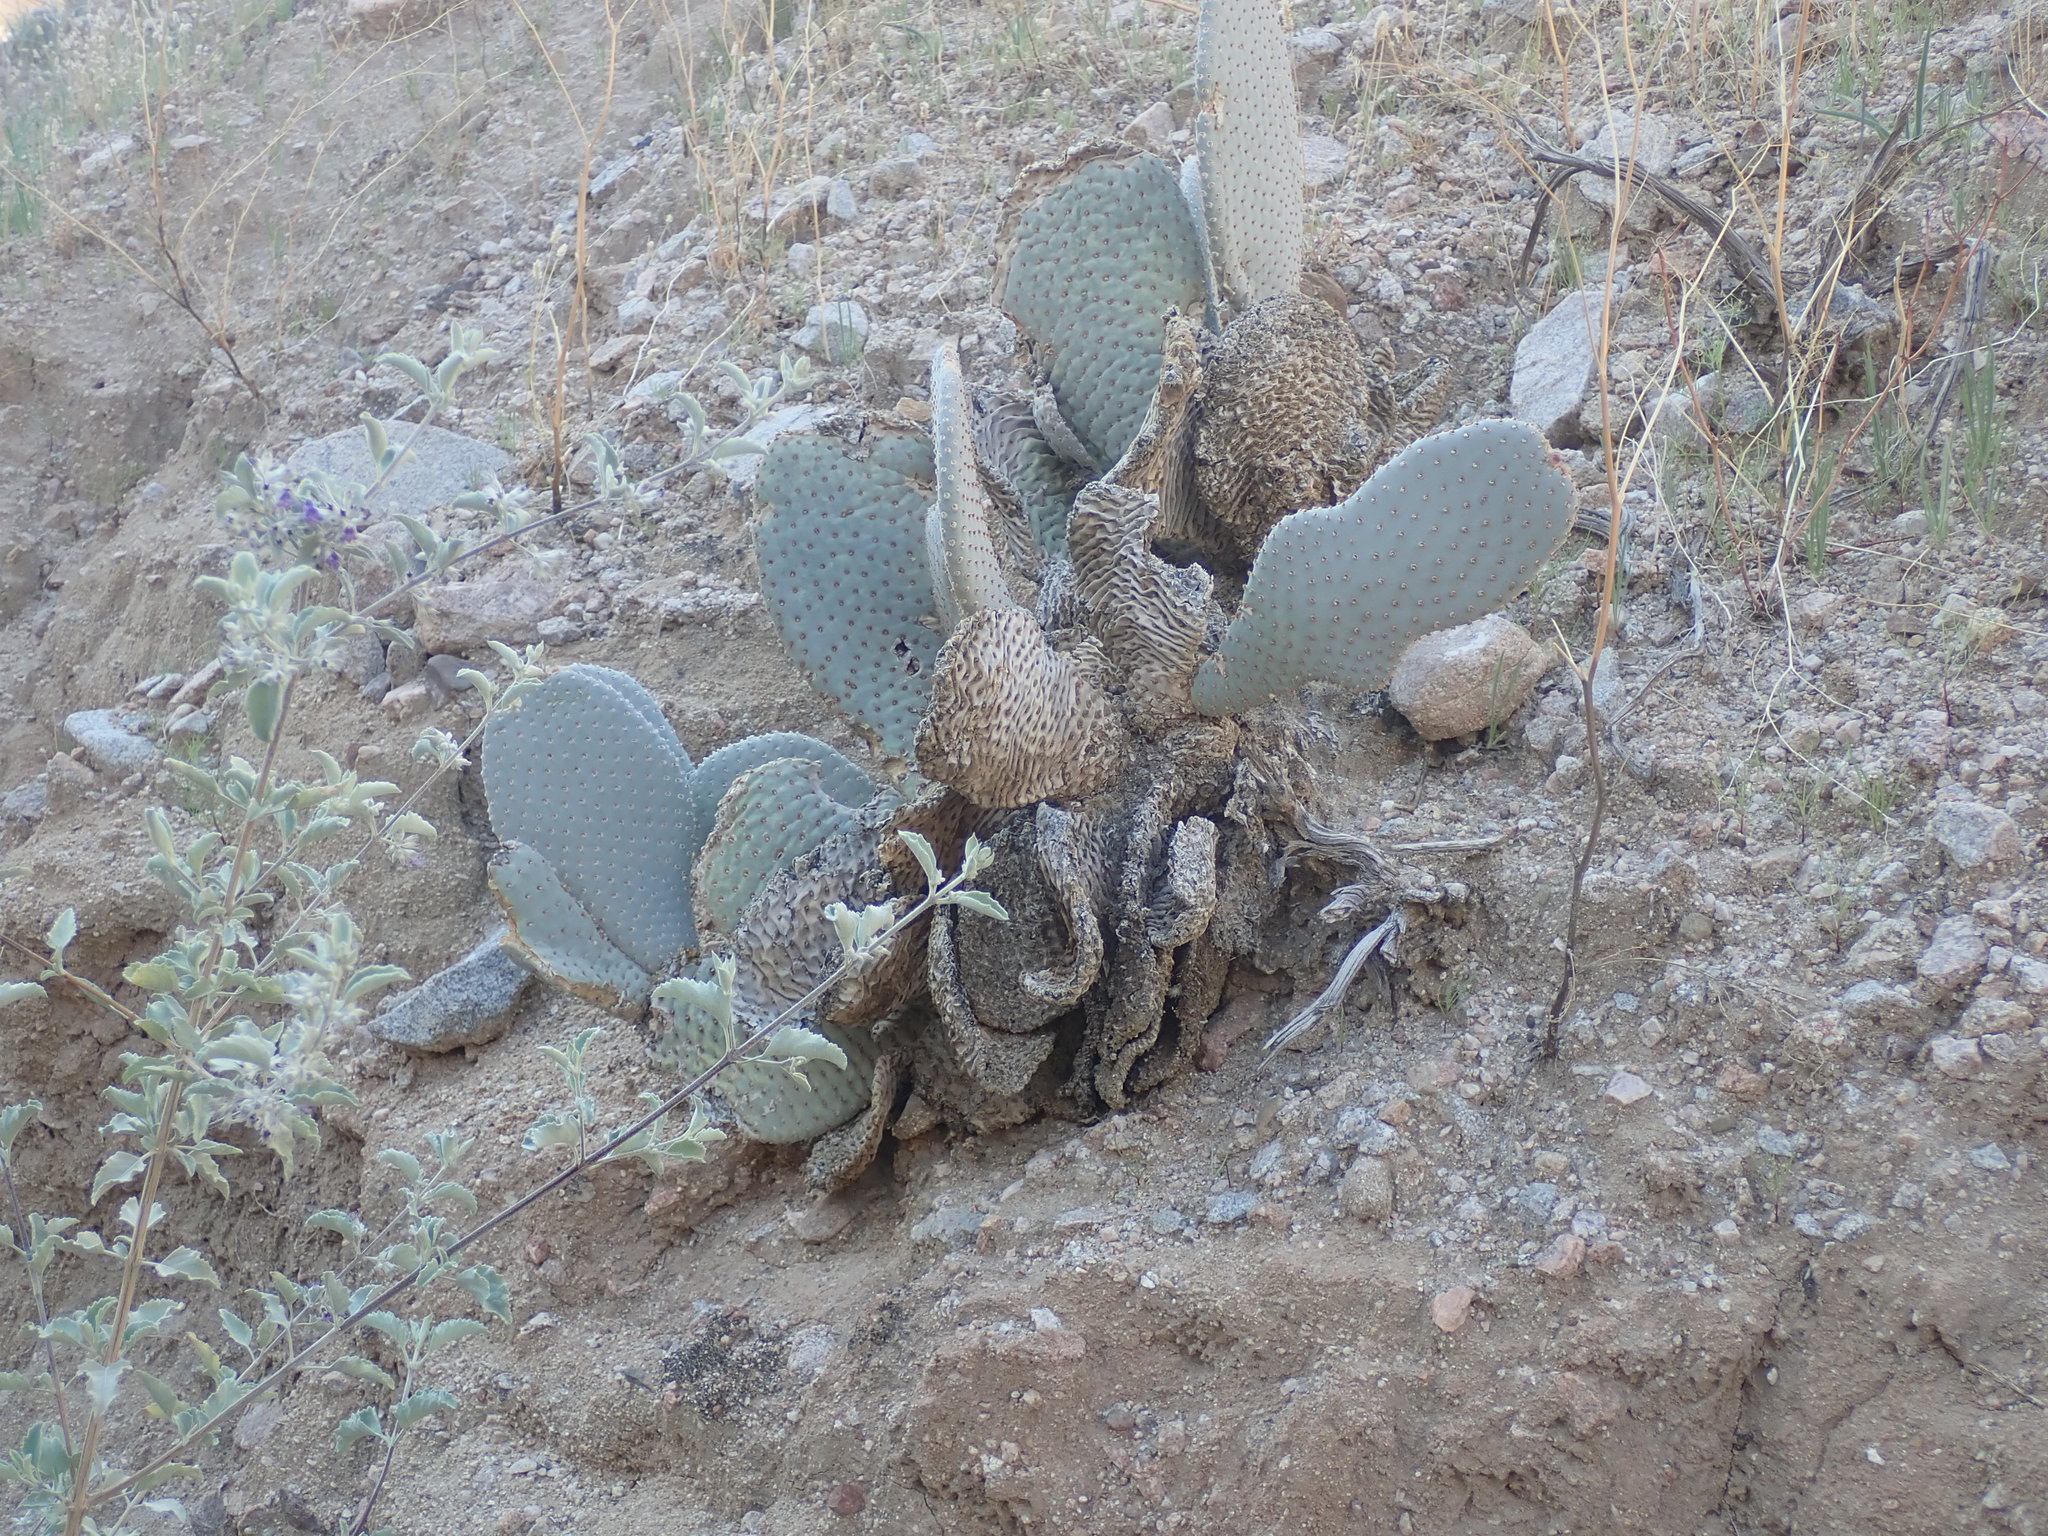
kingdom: Plantae
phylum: Tracheophyta
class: Magnoliopsida
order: Caryophyllales
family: Cactaceae
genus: Opuntia
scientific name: Opuntia basilaris
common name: Beavertail prickly-pear
